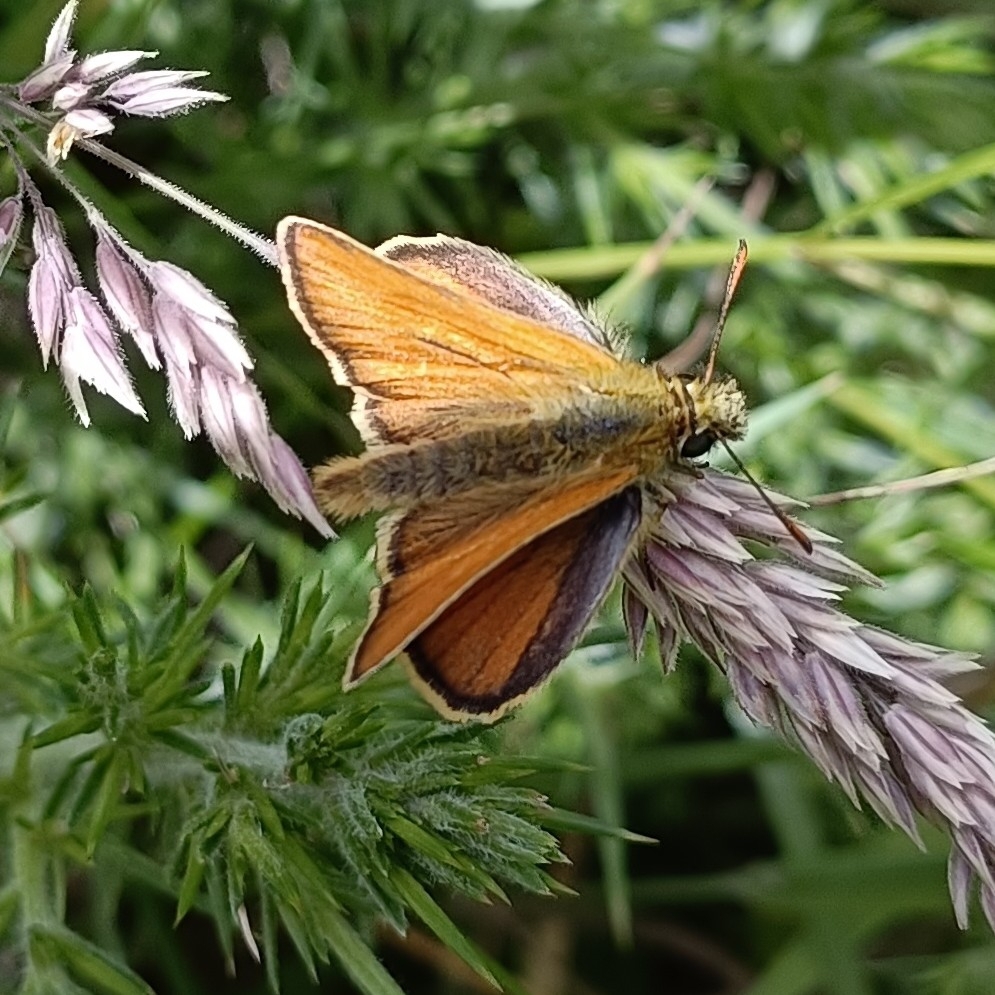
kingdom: Animalia
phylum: Arthropoda
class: Insecta
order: Lepidoptera
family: Hesperiidae
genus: Thymelicus
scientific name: Thymelicus sylvestris
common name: Small skipper
